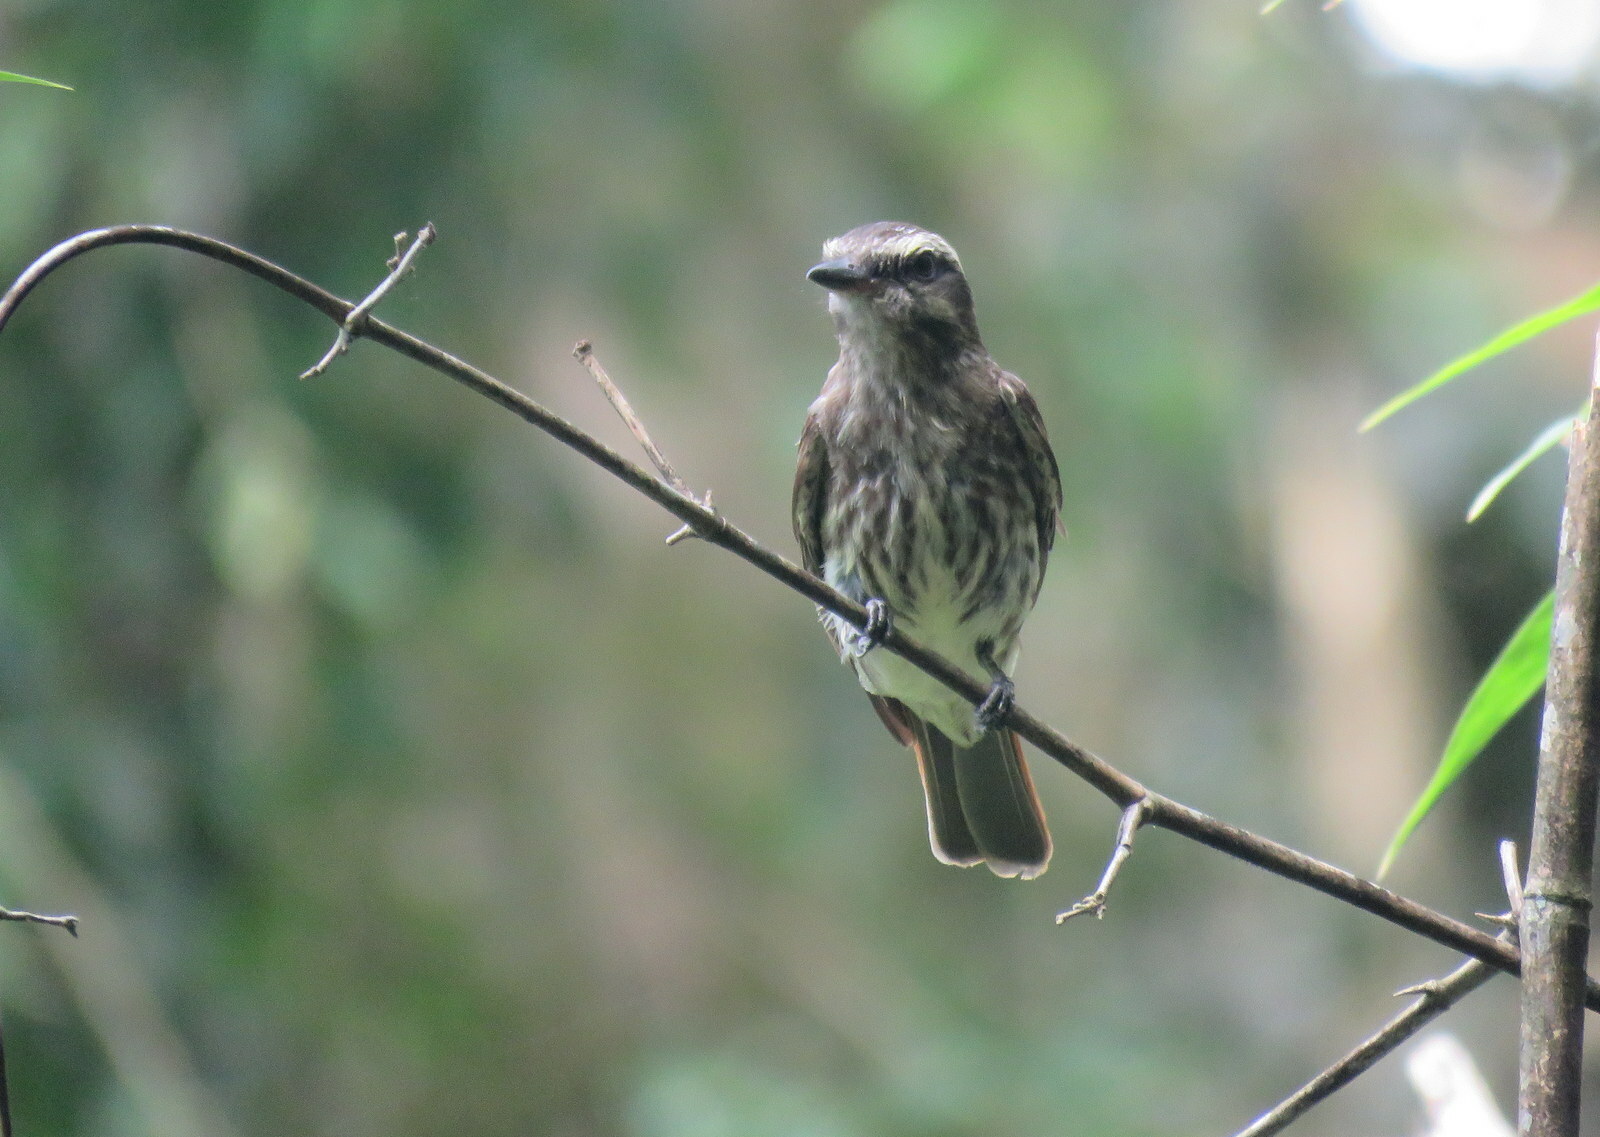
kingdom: Animalia
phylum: Chordata
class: Aves
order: Passeriformes
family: Tyrannidae
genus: Empidonomus
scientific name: Empidonomus varius
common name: Variegated flycatcher
